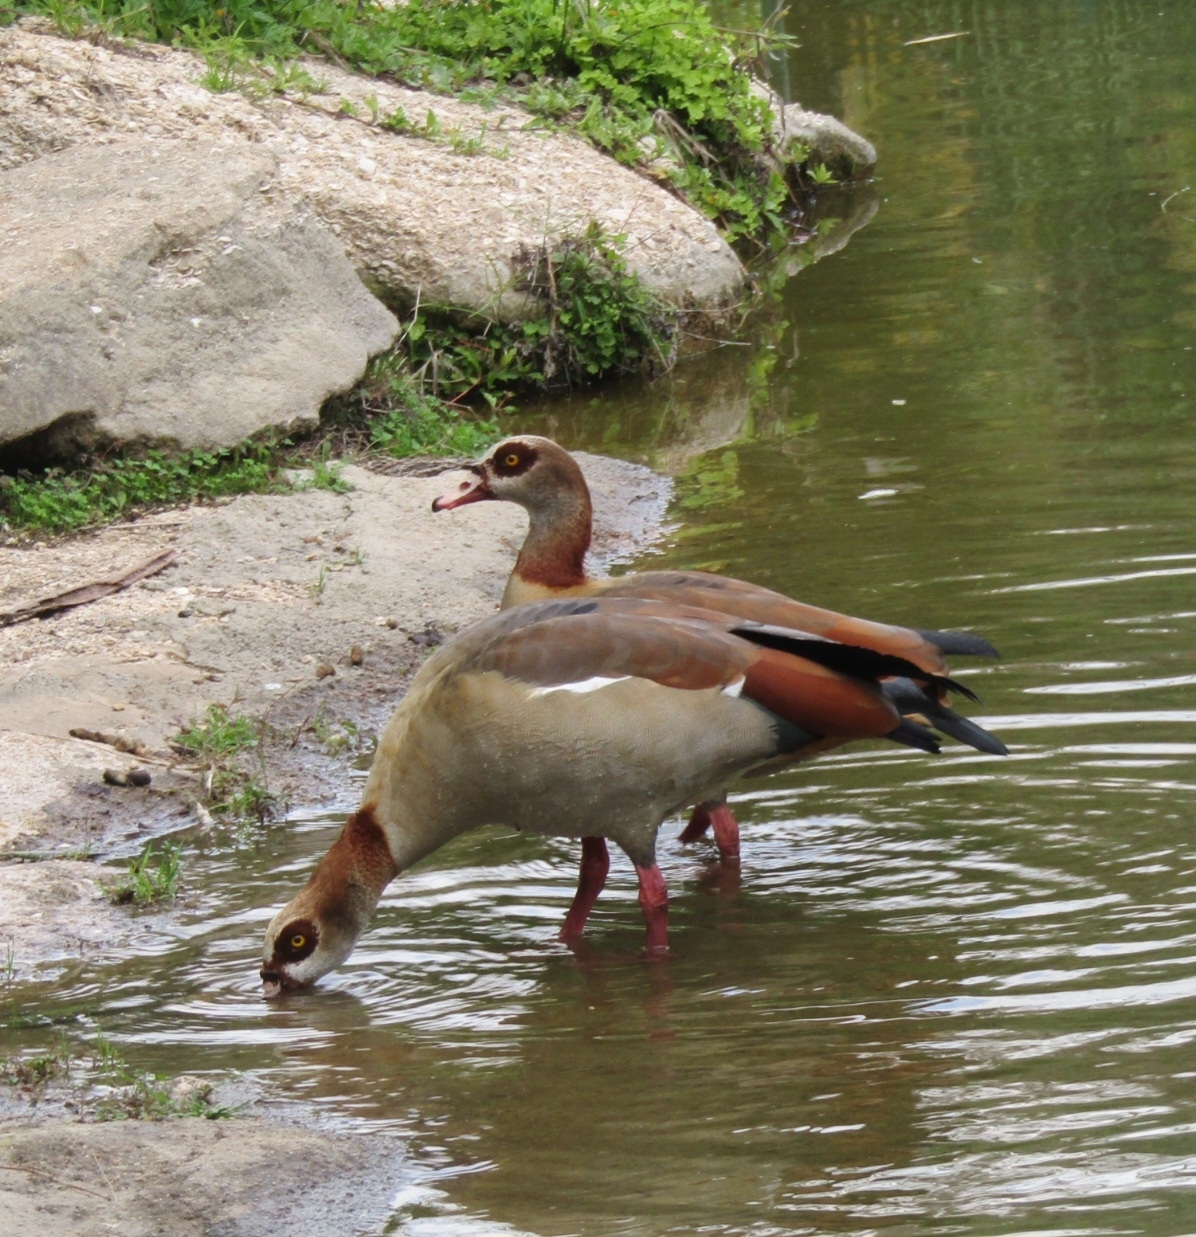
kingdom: Animalia
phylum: Chordata
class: Aves
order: Anseriformes
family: Anatidae
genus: Alopochen
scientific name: Alopochen aegyptiaca
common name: Egyptian goose
